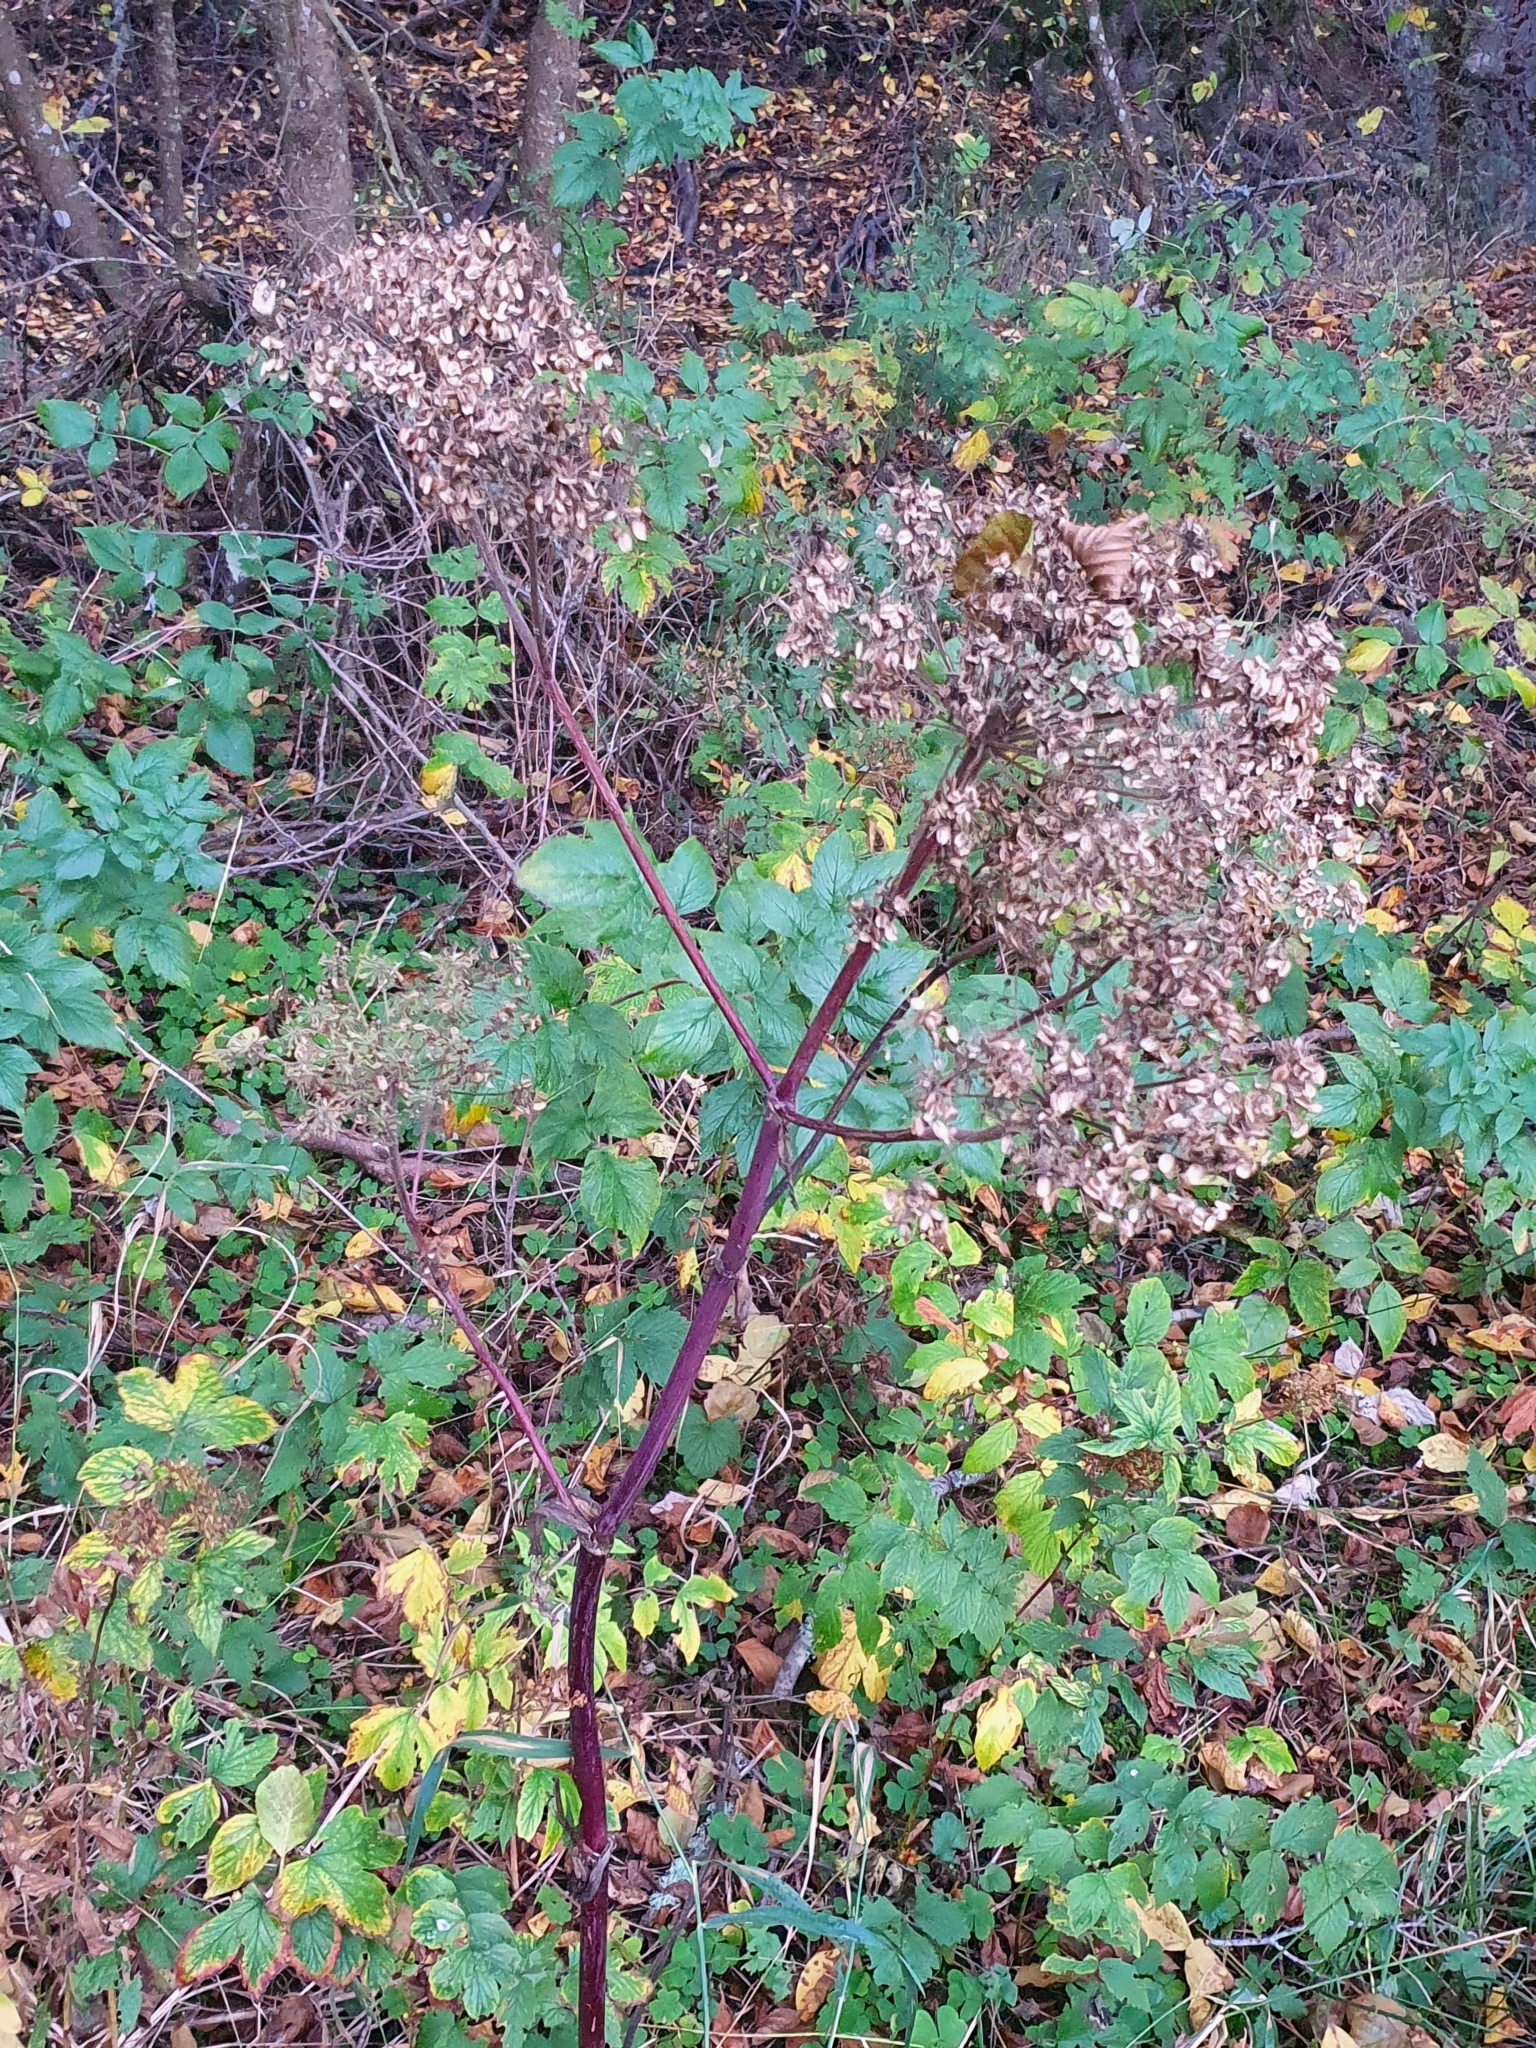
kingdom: Plantae
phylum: Tracheophyta
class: Magnoliopsida
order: Apiales
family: Apiaceae
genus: Angelica
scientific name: Angelica sylvestris
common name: Wild angelica
